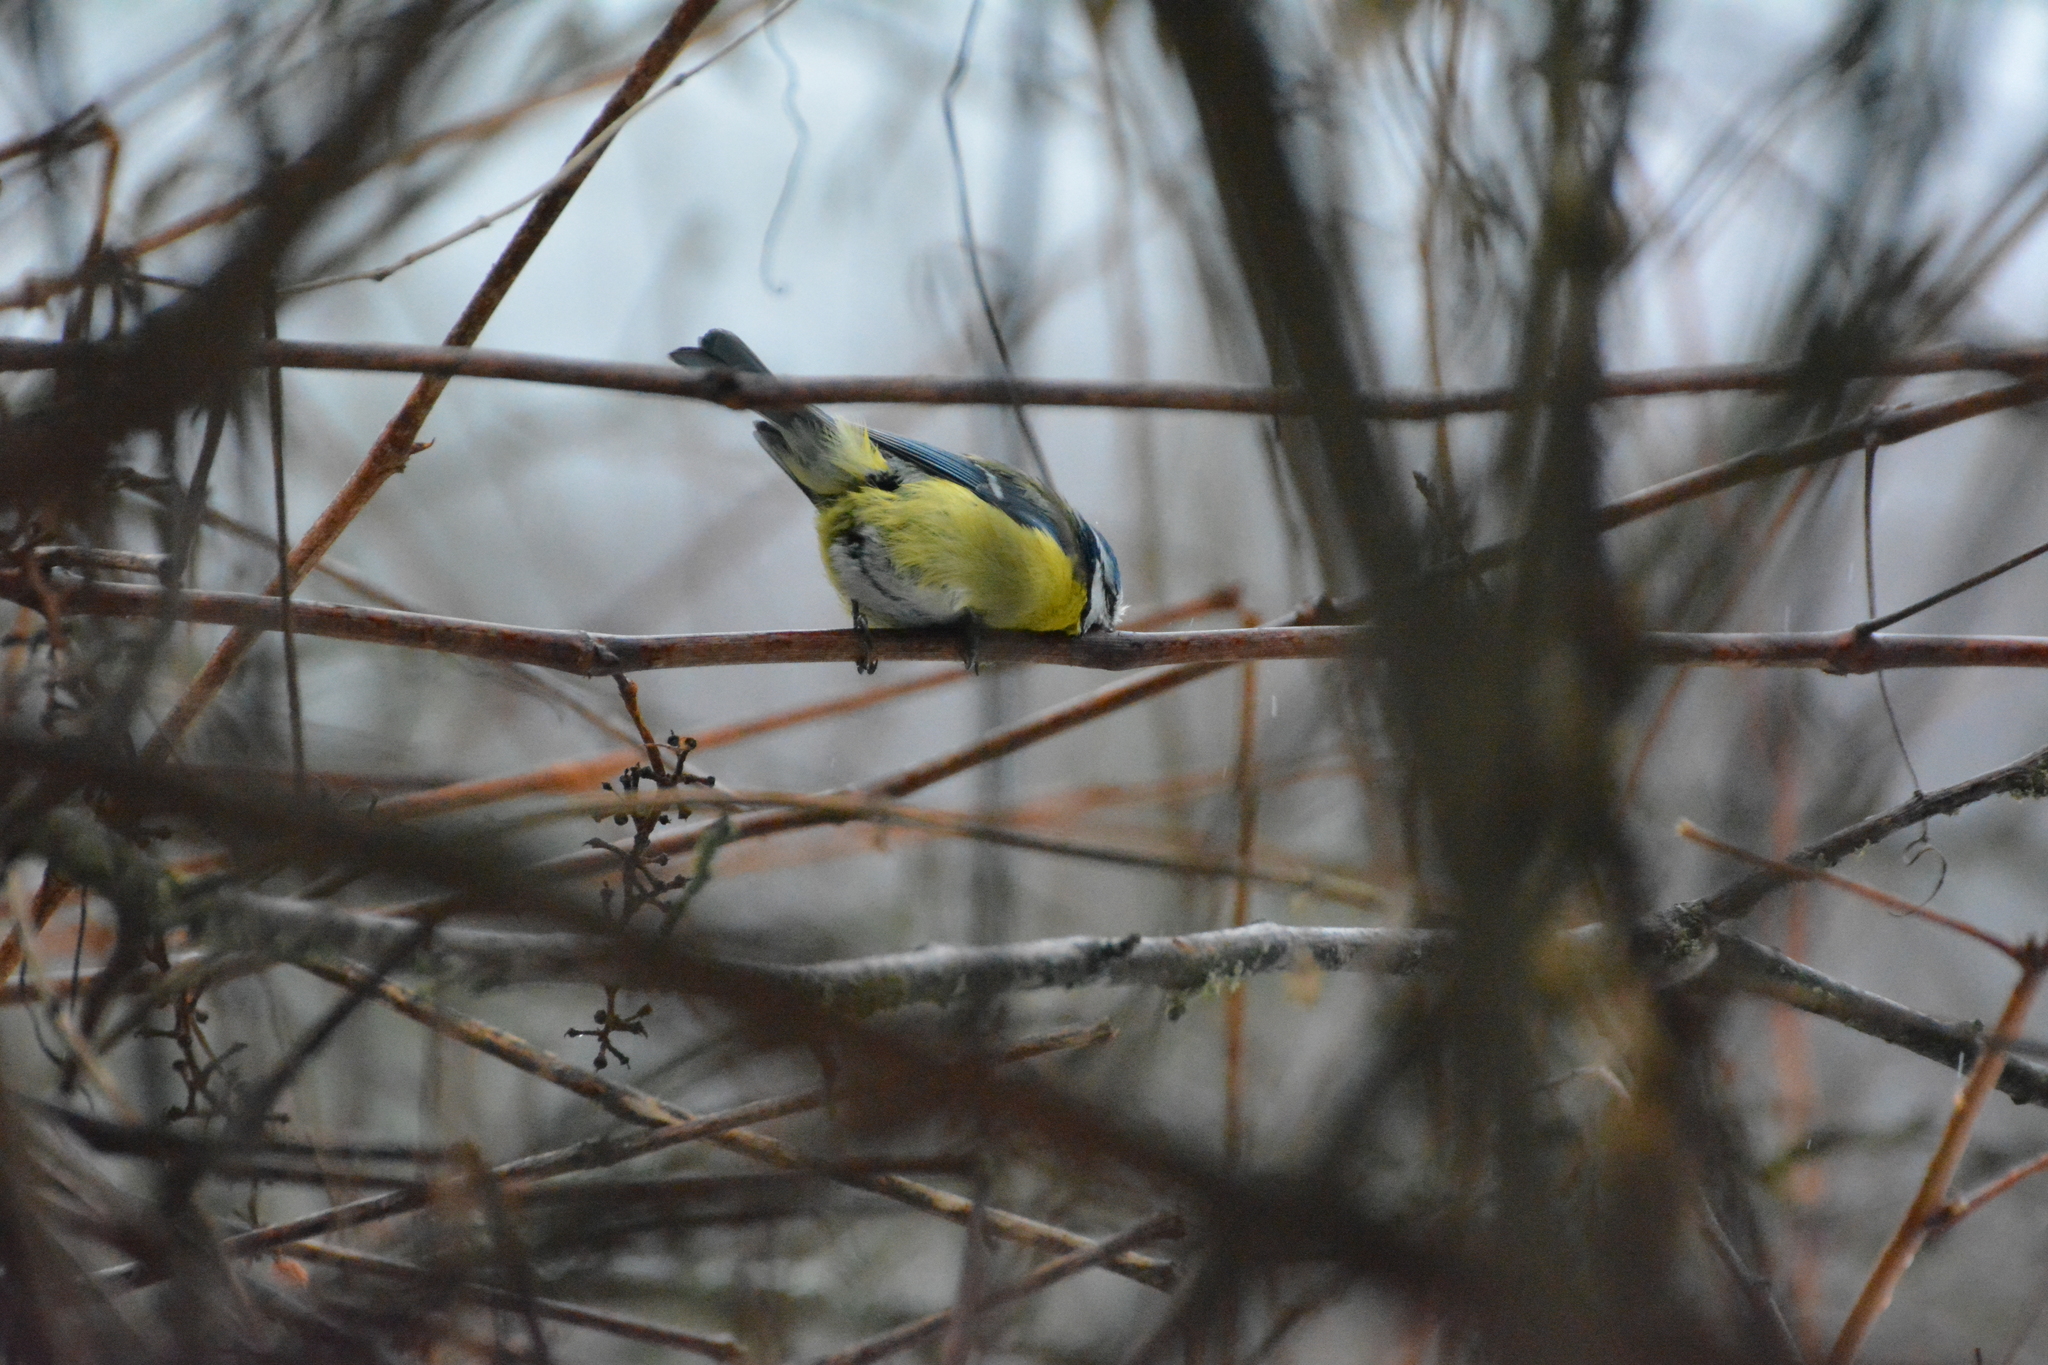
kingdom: Animalia
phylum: Chordata
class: Aves
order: Passeriformes
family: Paridae
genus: Cyanistes
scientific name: Cyanistes caeruleus
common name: Eurasian blue tit
